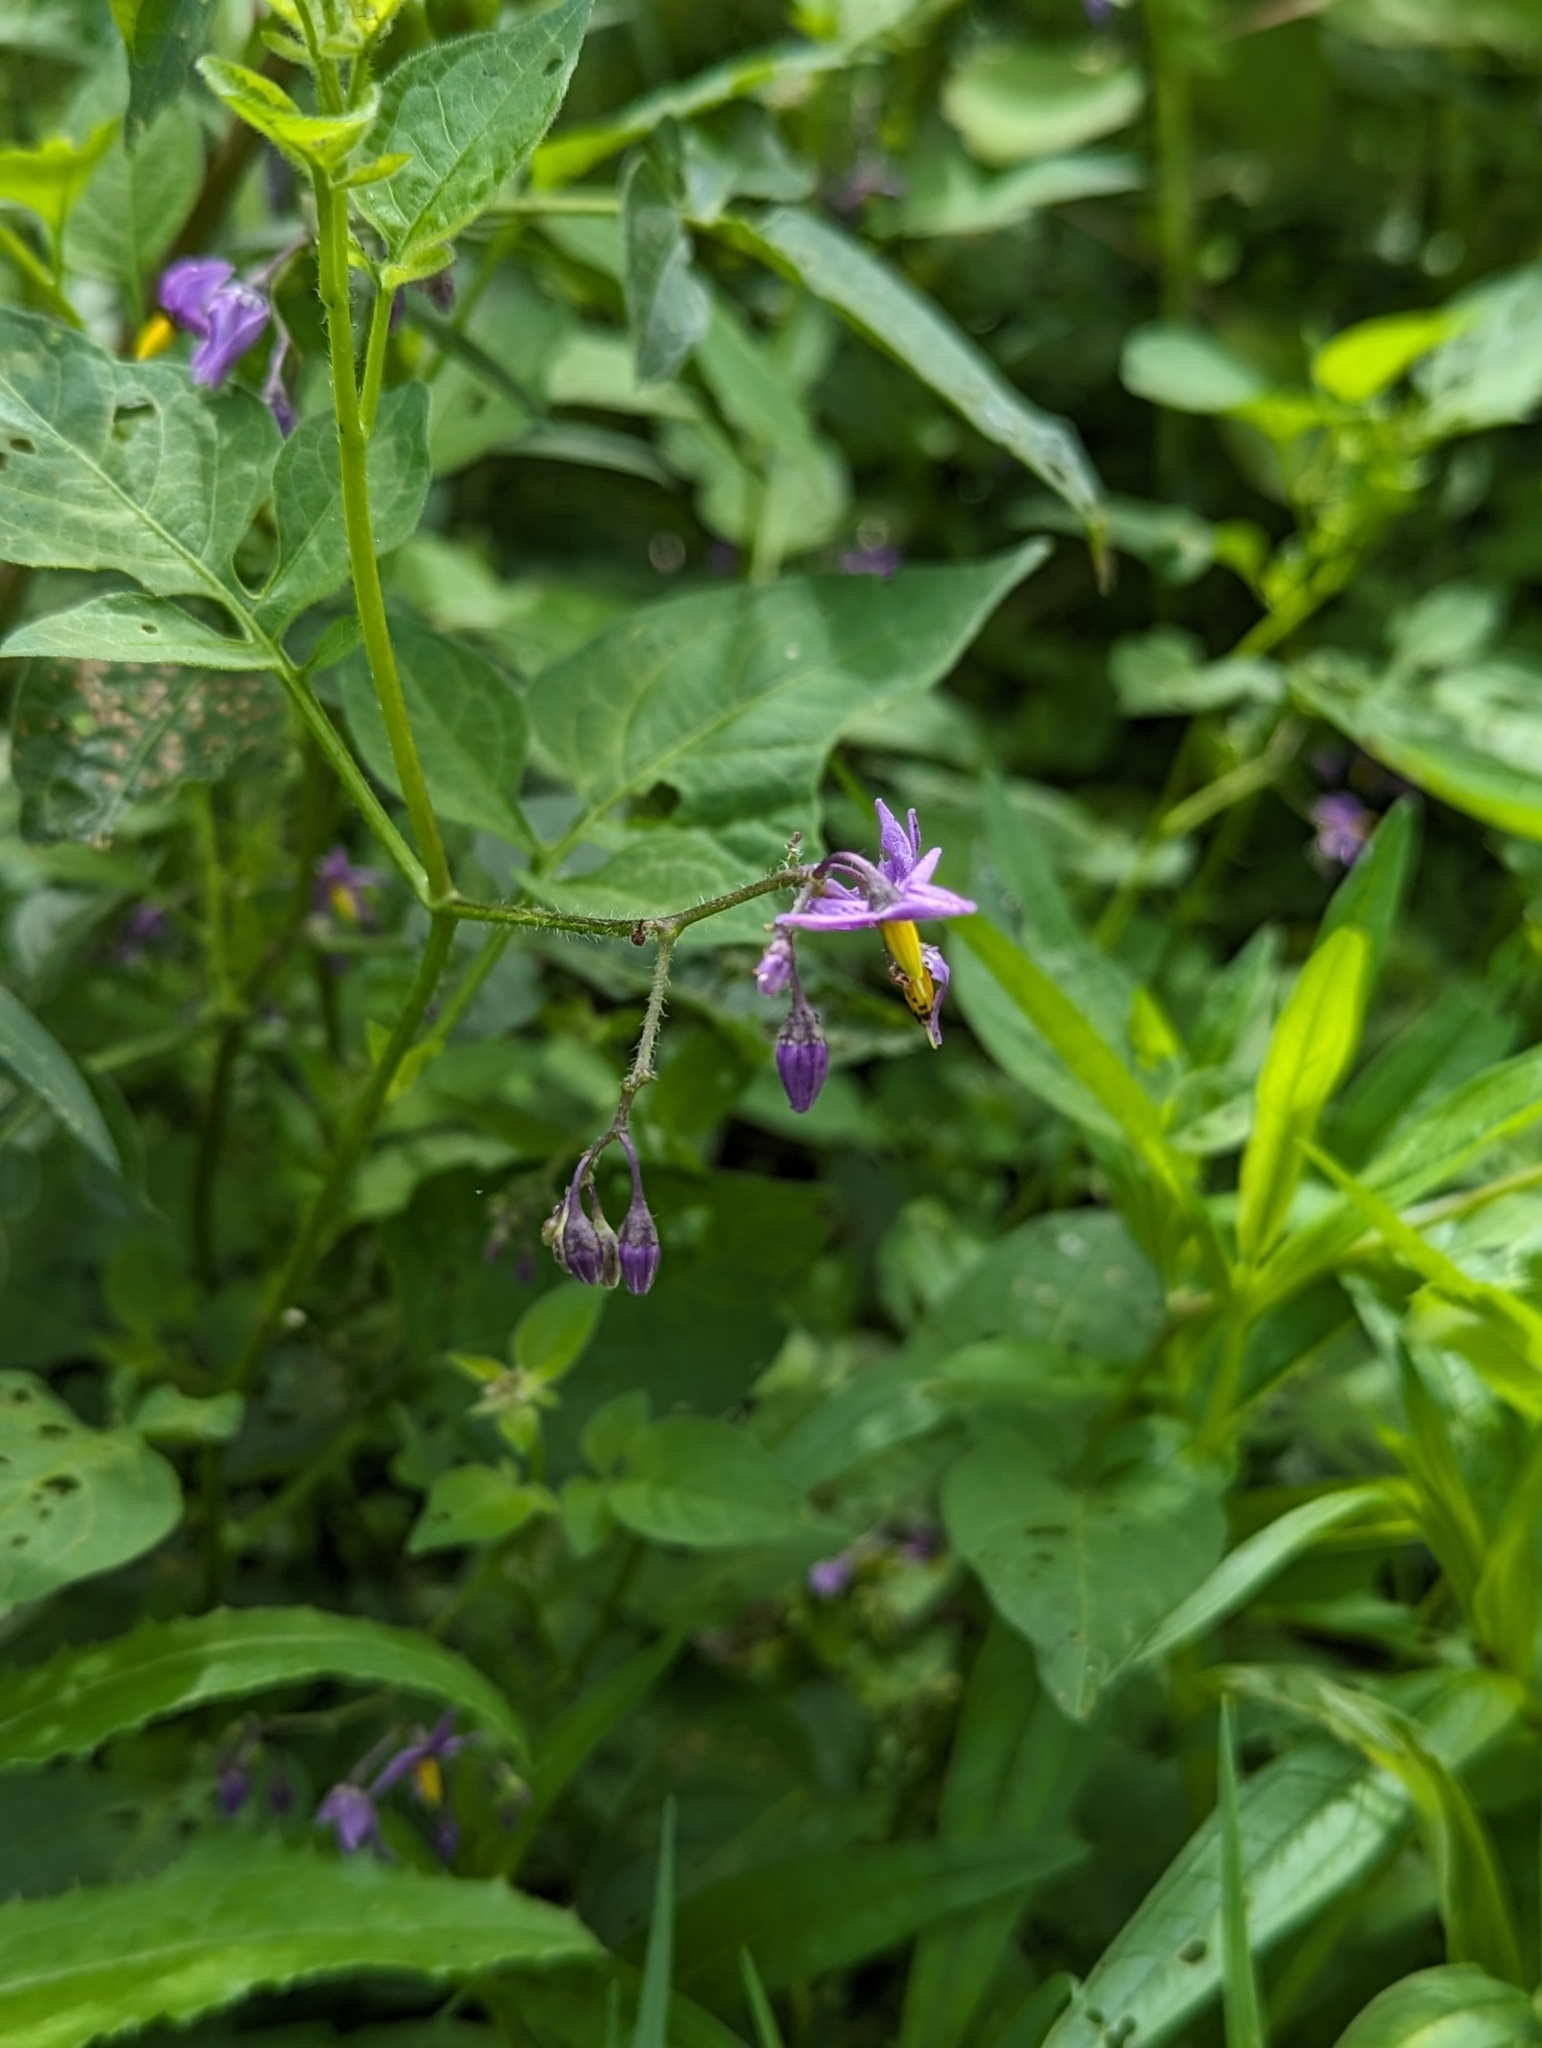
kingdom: Plantae
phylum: Tracheophyta
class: Magnoliopsida
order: Solanales
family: Solanaceae
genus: Solanum
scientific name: Solanum dulcamara
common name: Climbing nightshade
